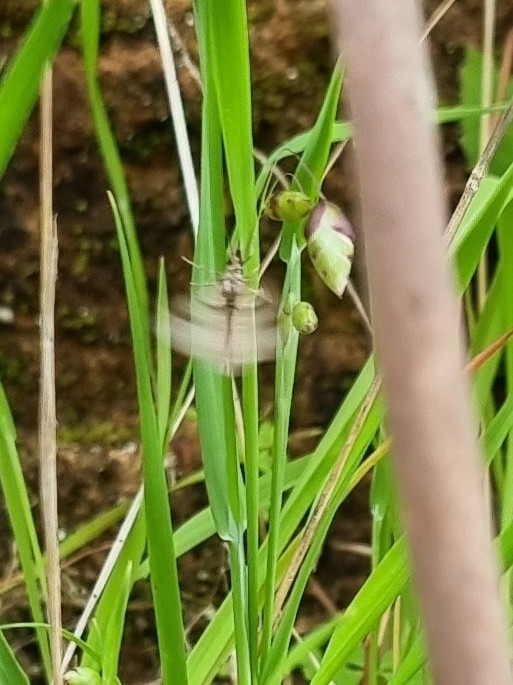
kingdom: Animalia
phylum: Arthropoda
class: Insecta
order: Lepidoptera
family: Geometridae
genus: Costaconvexa
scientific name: Costaconvexa centrostrigaria
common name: Bent-line carpet
